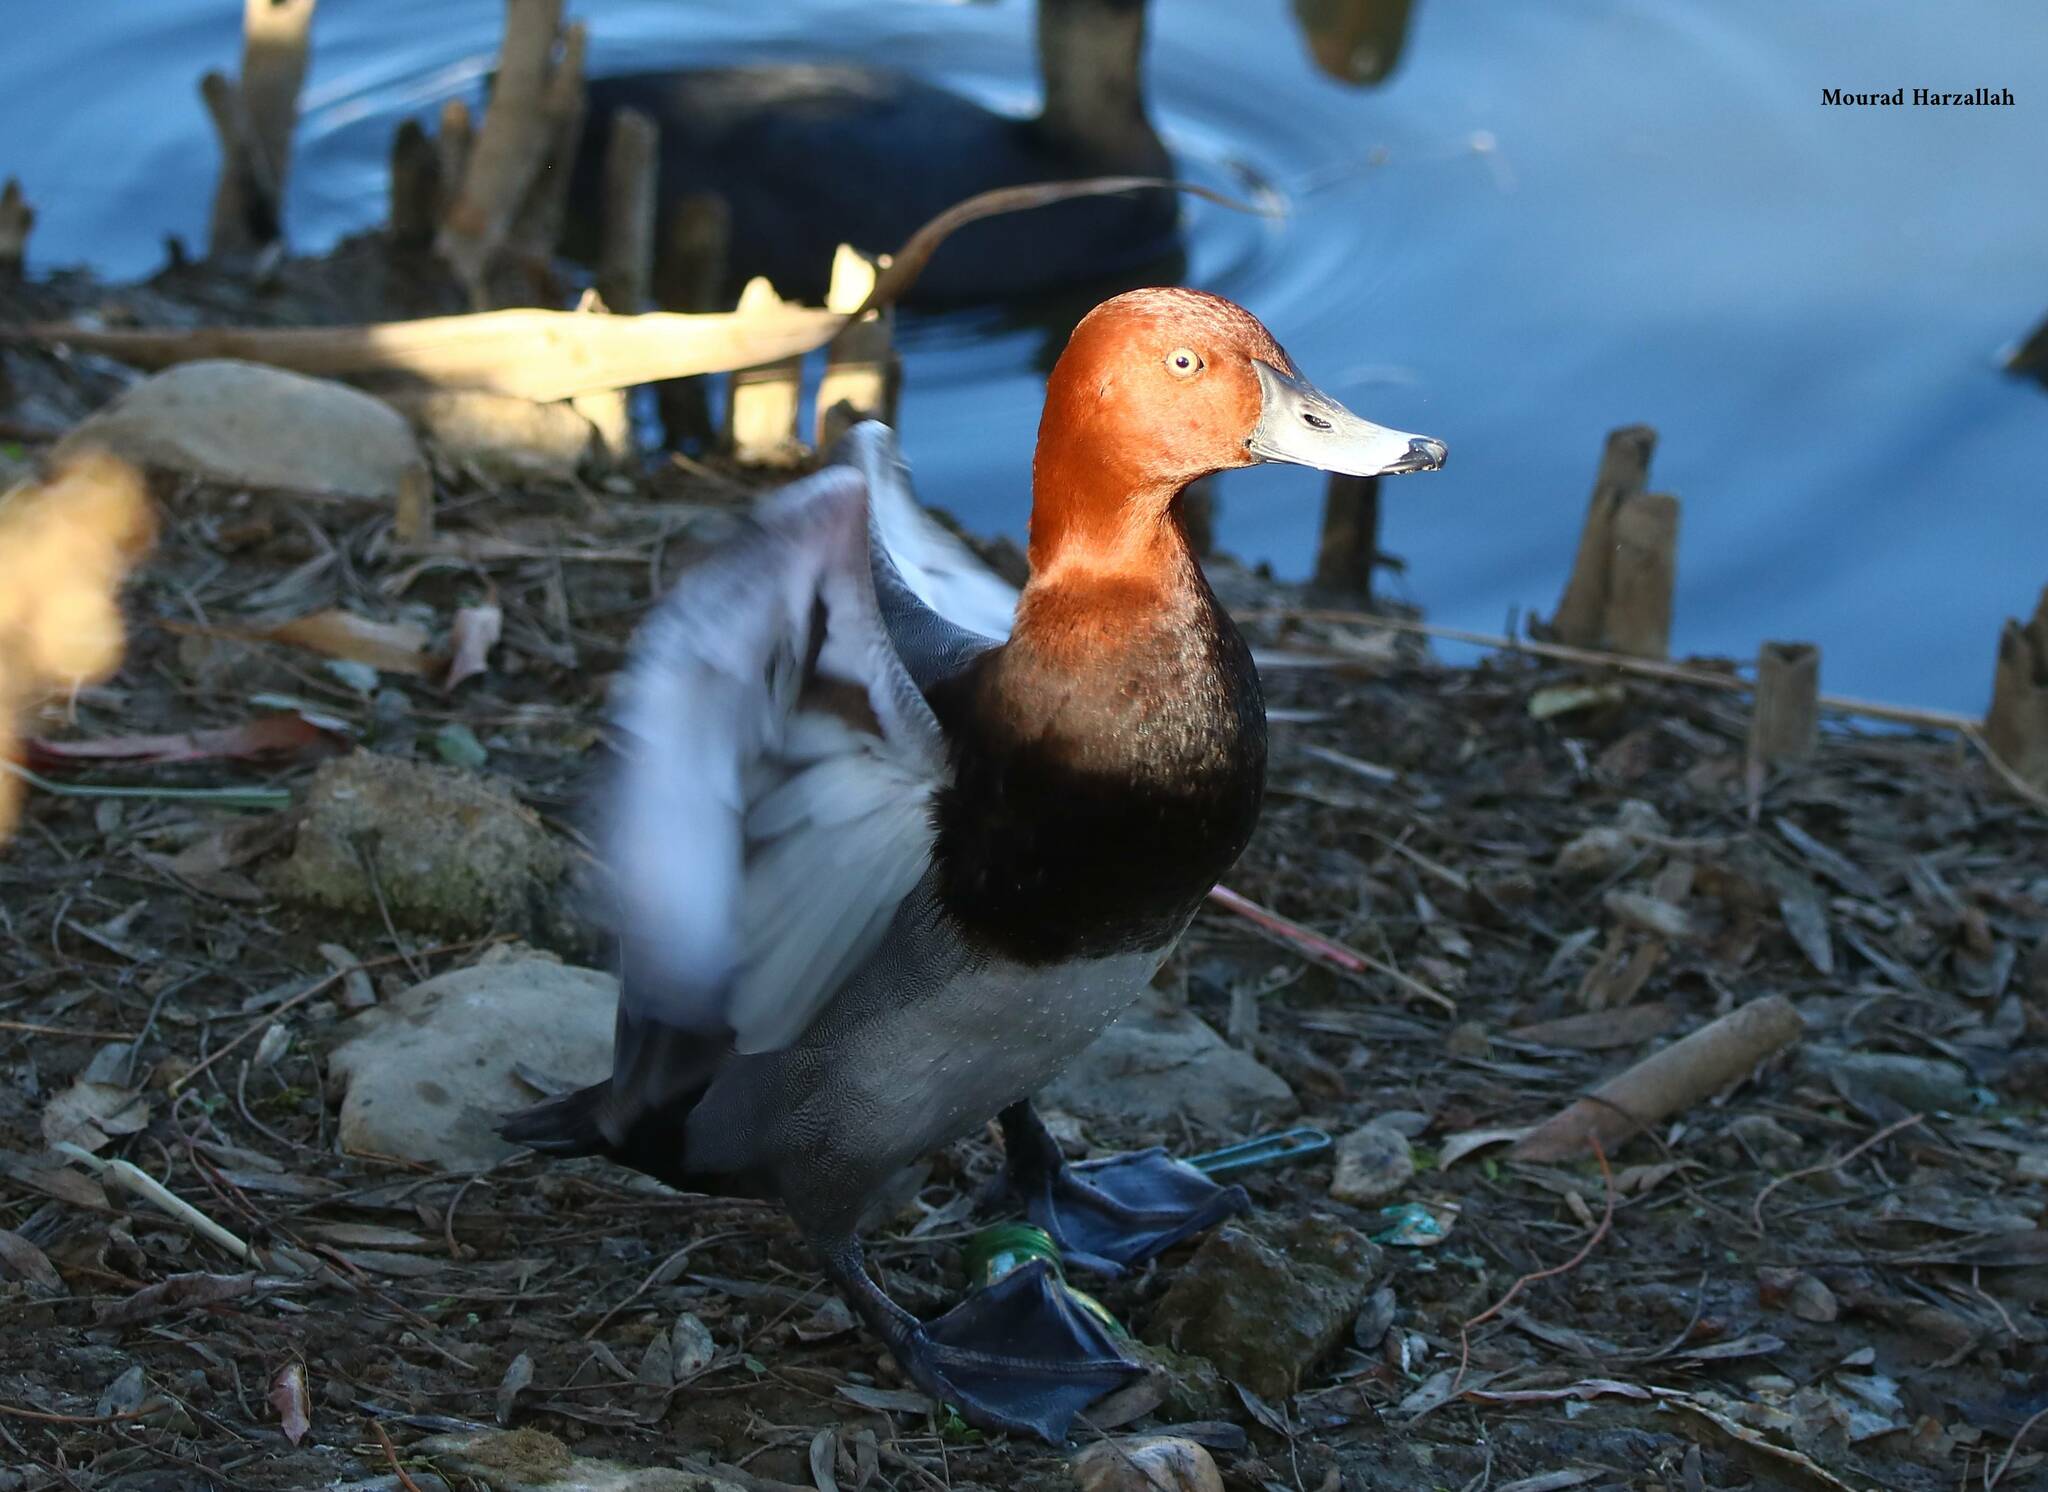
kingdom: Animalia
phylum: Chordata
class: Aves
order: Anseriformes
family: Anatidae
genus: Aythya
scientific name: Aythya ferina
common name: Common pochard
